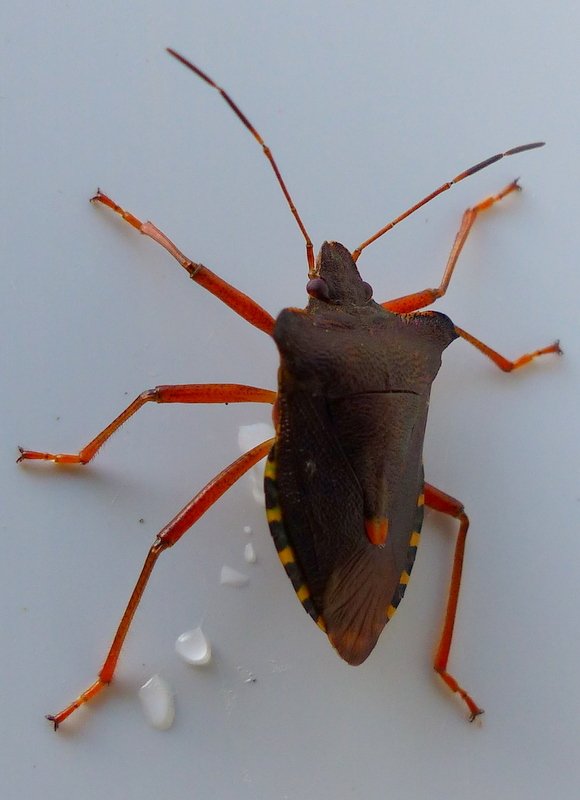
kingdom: Animalia
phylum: Arthropoda
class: Insecta
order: Hemiptera
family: Pentatomidae
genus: Pentatoma
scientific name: Pentatoma rufipes
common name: Forest bug
